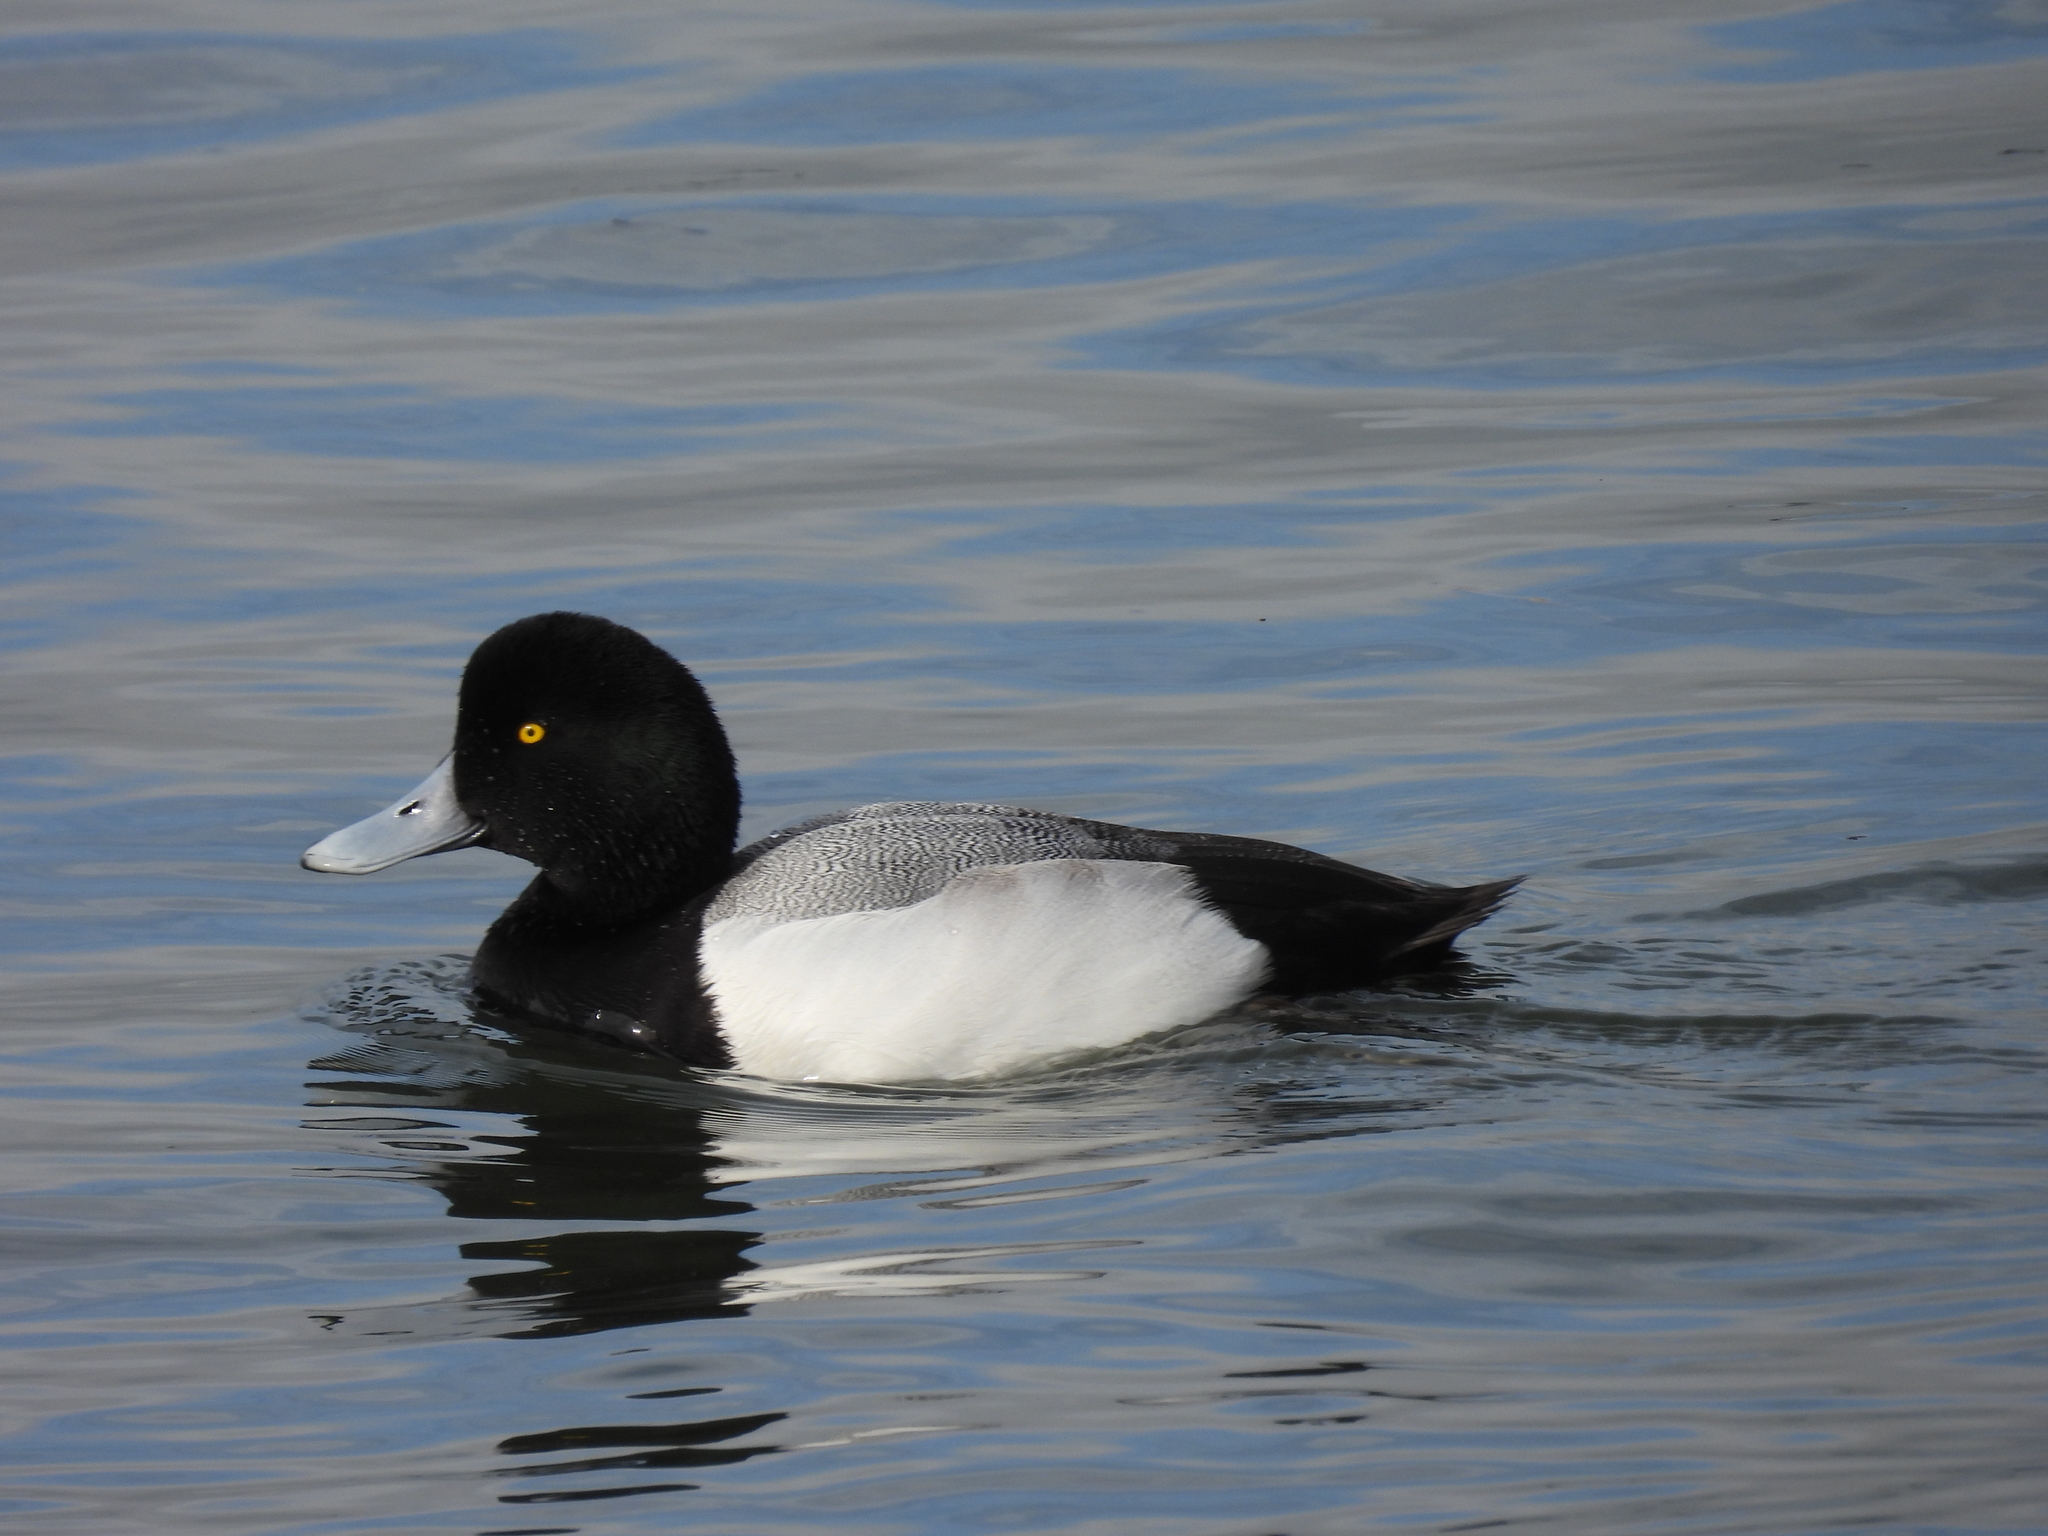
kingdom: Animalia
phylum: Chordata
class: Aves
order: Anseriformes
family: Anatidae
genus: Aythya
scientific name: Aythya marila
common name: Greater scaup
